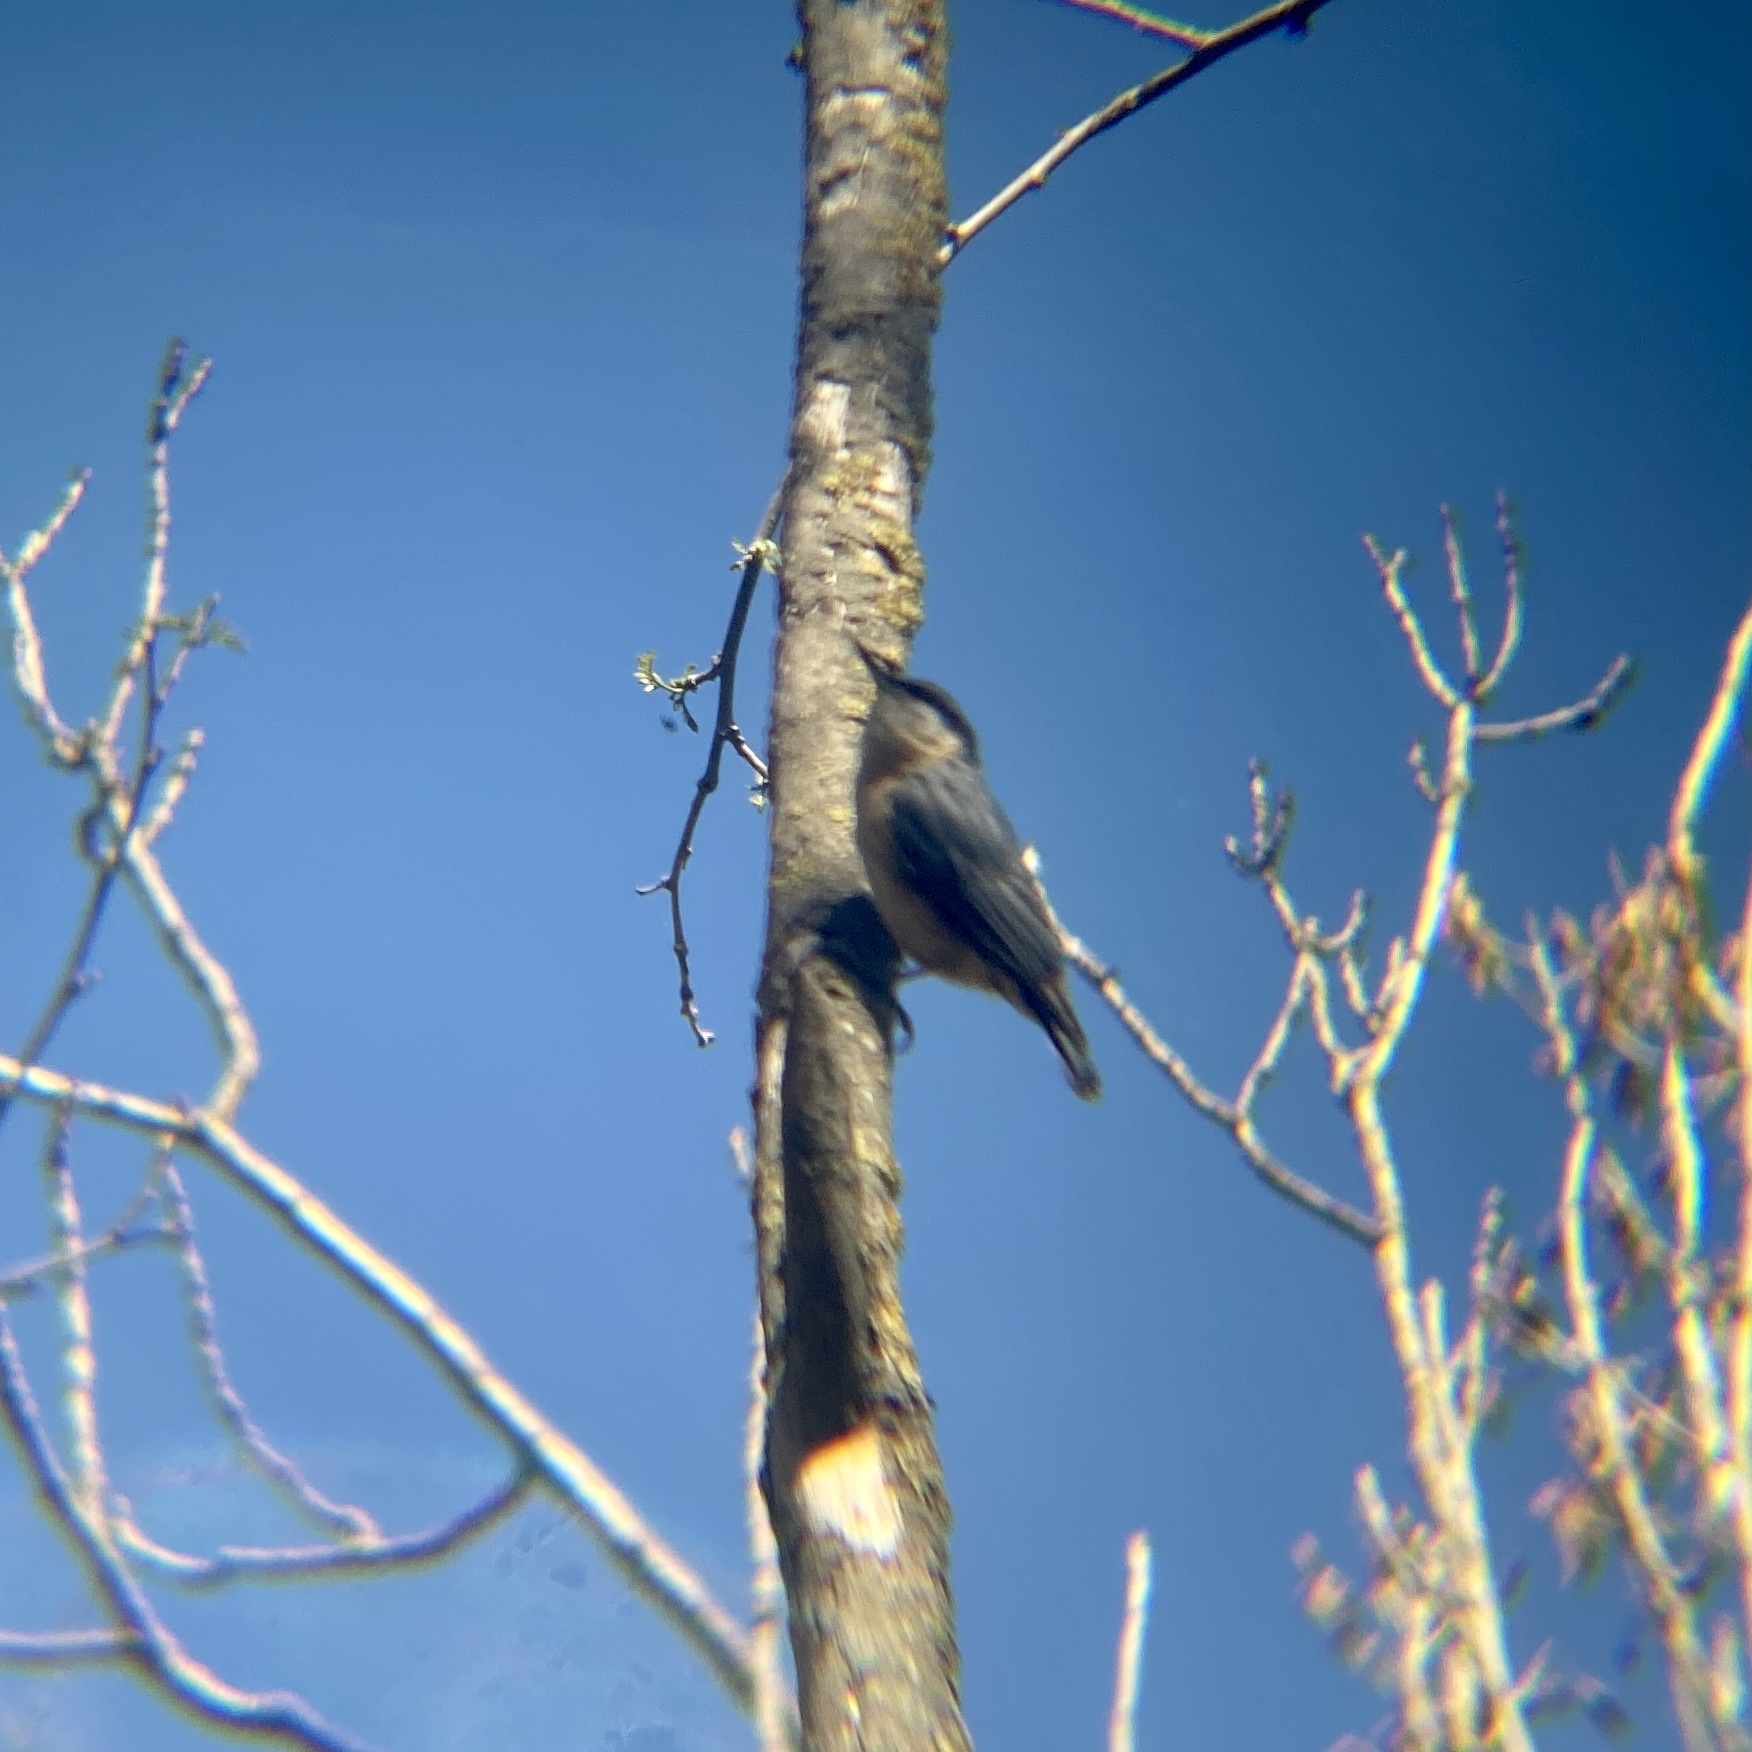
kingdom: Animalia
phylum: Chordata
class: Aves
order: Passeriformes
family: Sittidae
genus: Sitta
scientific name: Sitta europaea
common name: Eurasian nuthatch
